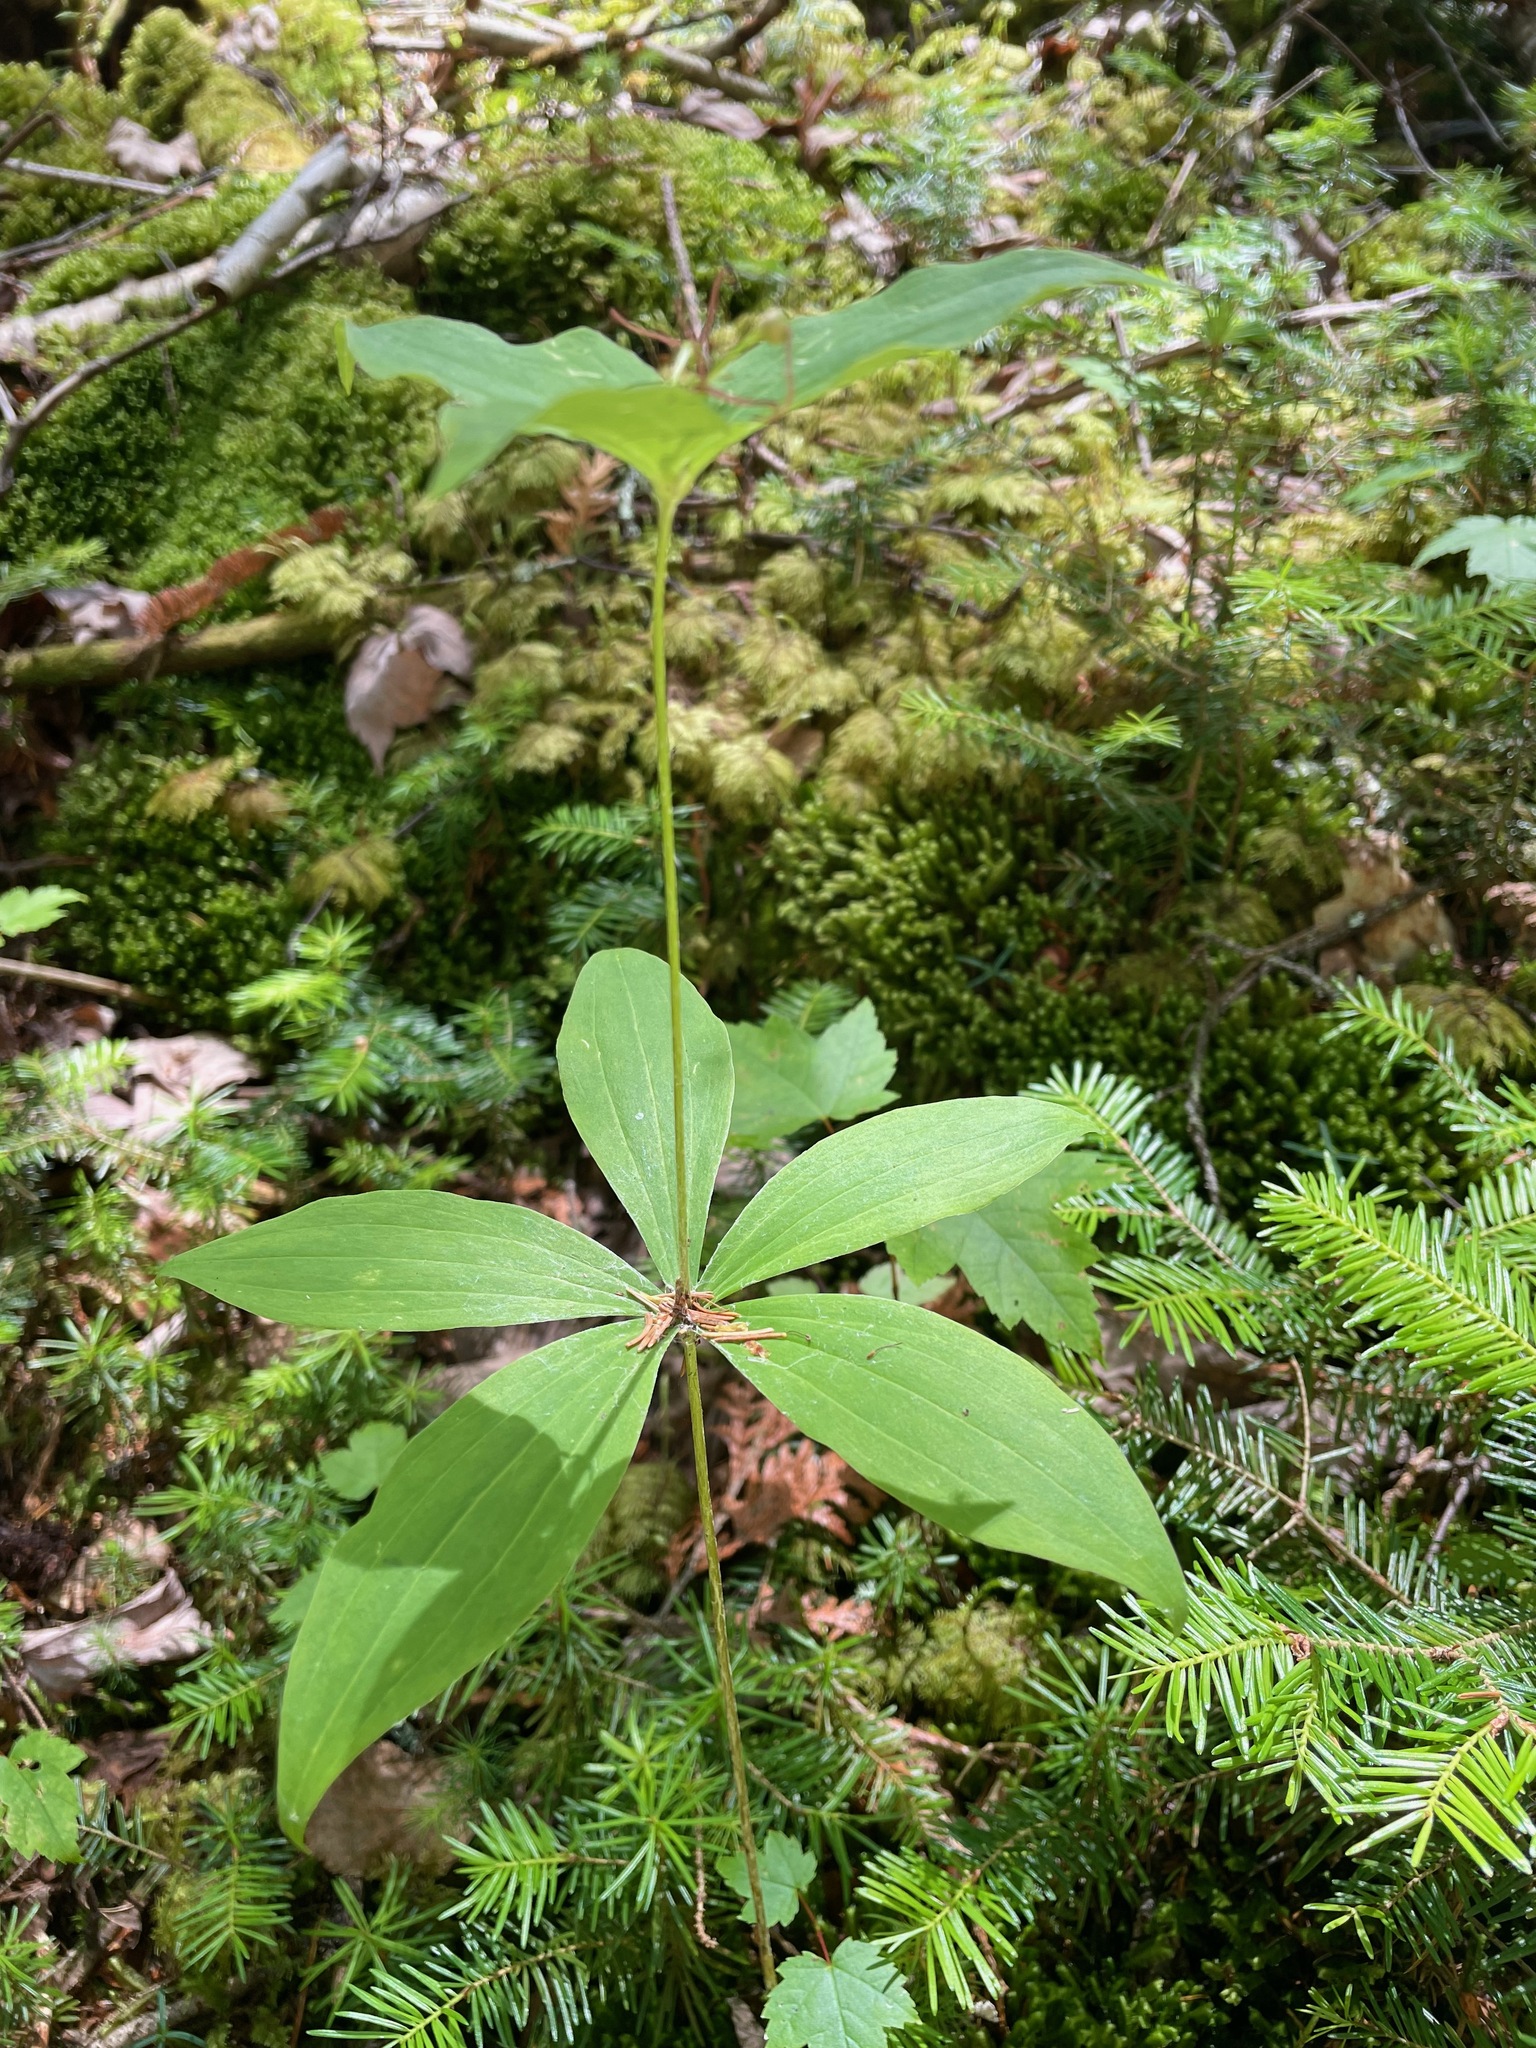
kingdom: Plantae
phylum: Tracheophyta
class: Liliopsida
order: Liliales
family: Liliaceae
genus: Medeola
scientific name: Medeola virginiana
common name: Indian cucumber-root
